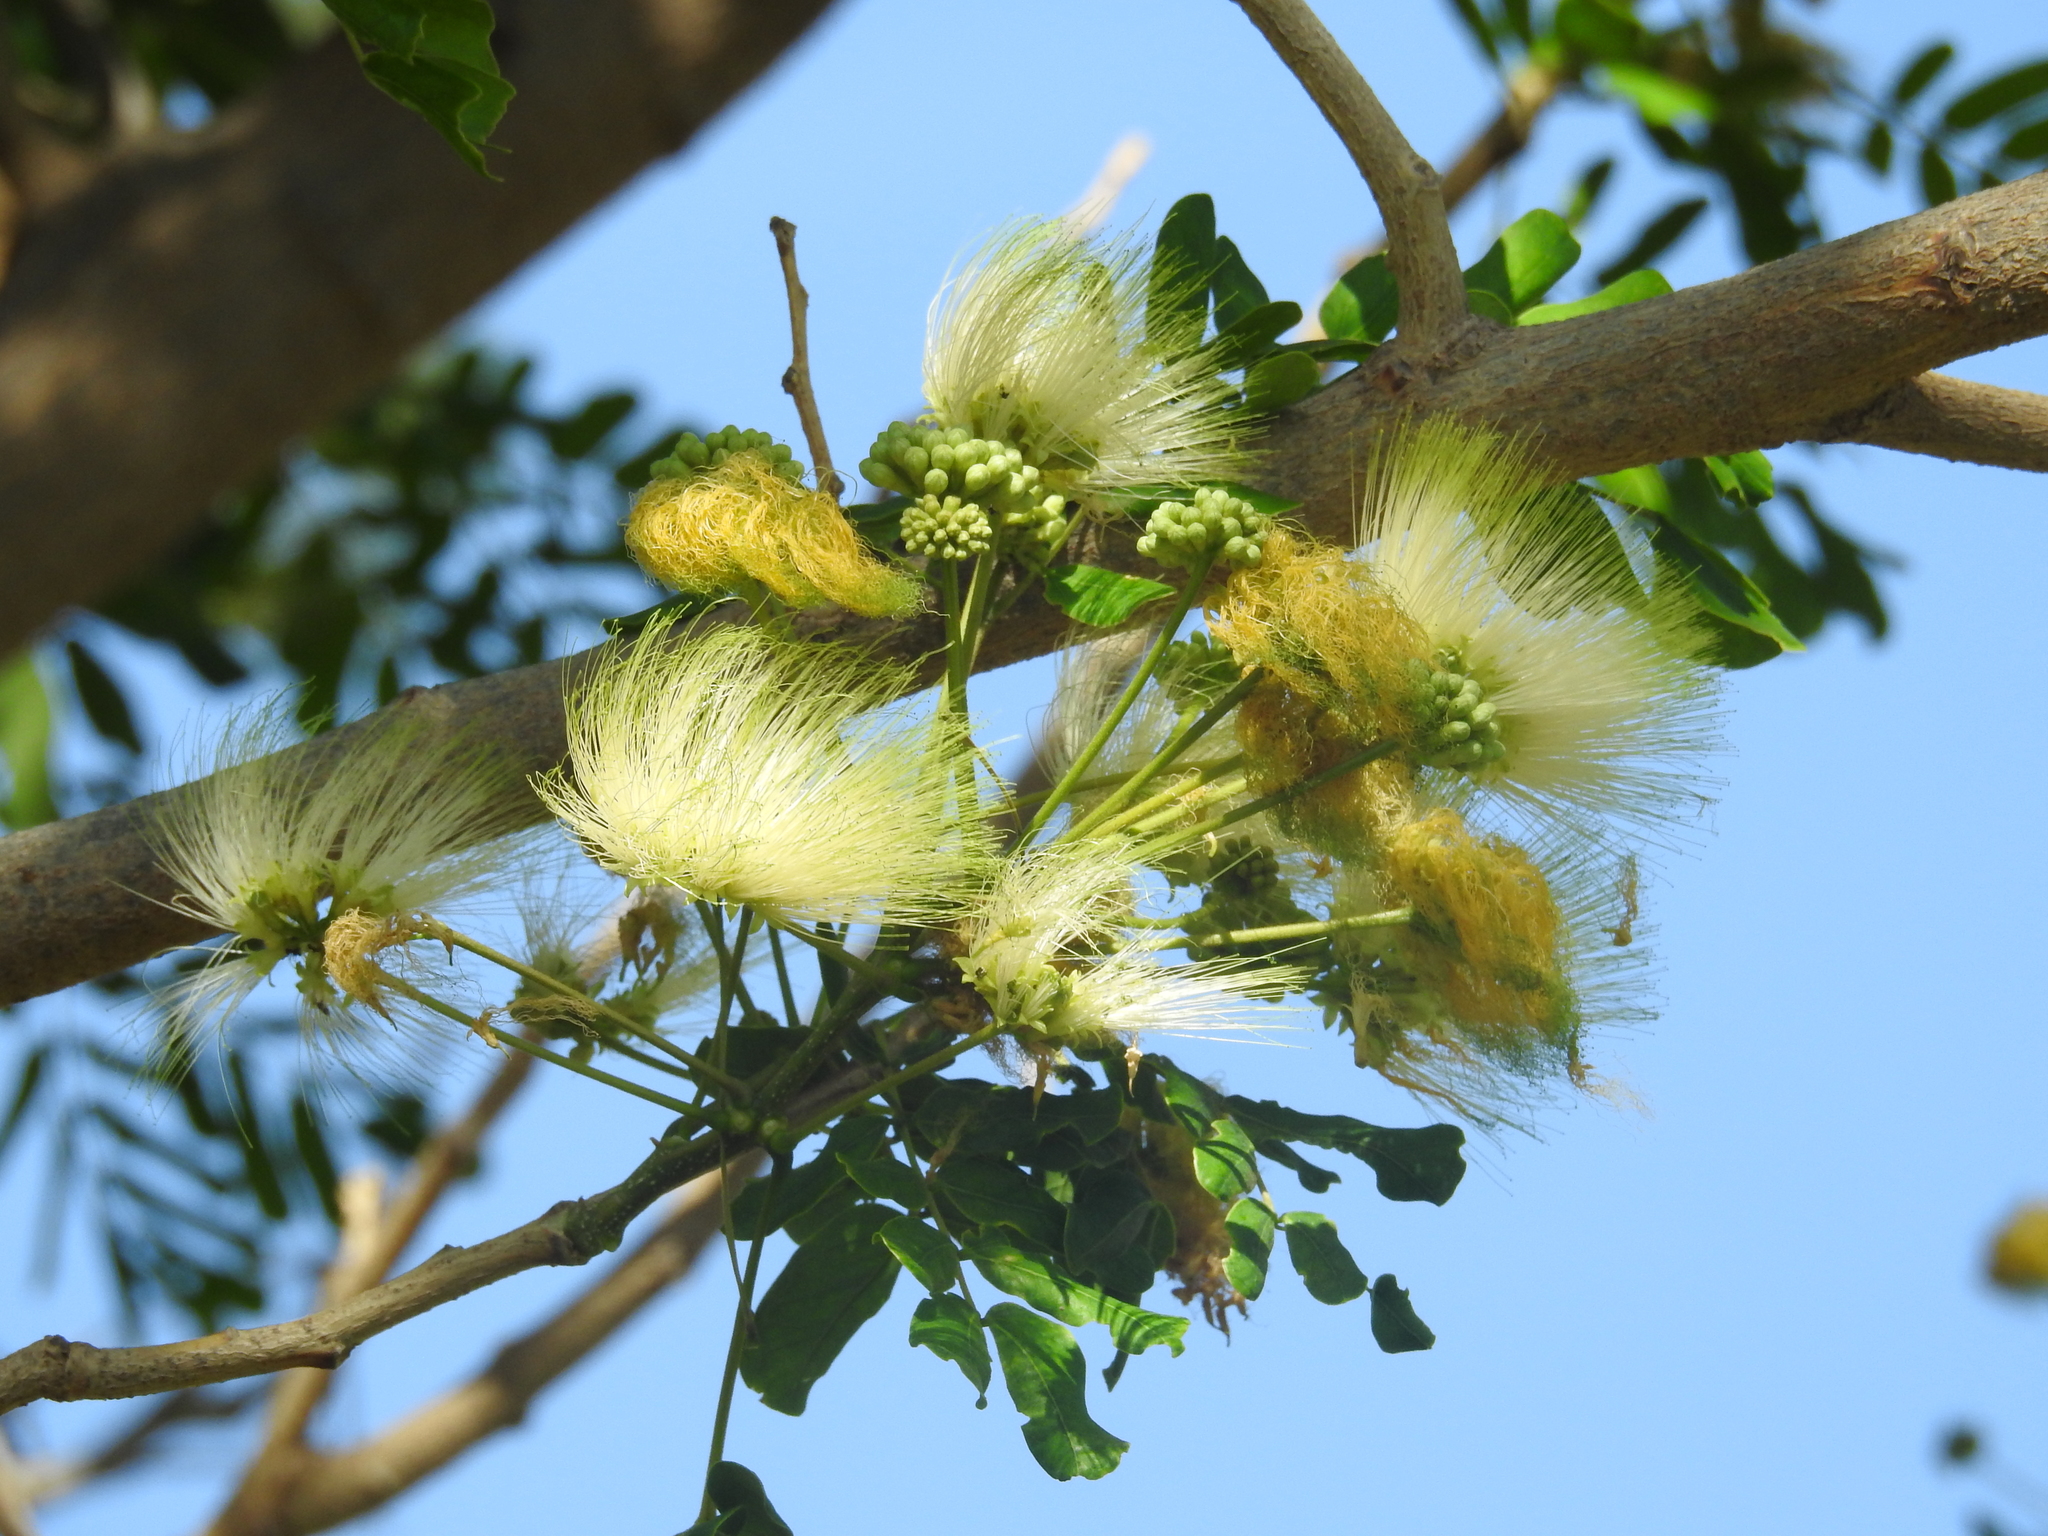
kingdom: Plantae
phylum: Tracheophyta
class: Magnoliopsida
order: Fabales
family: Fabaceae
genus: Albizia
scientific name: Albizia lebbeck
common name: Woman's tongue
